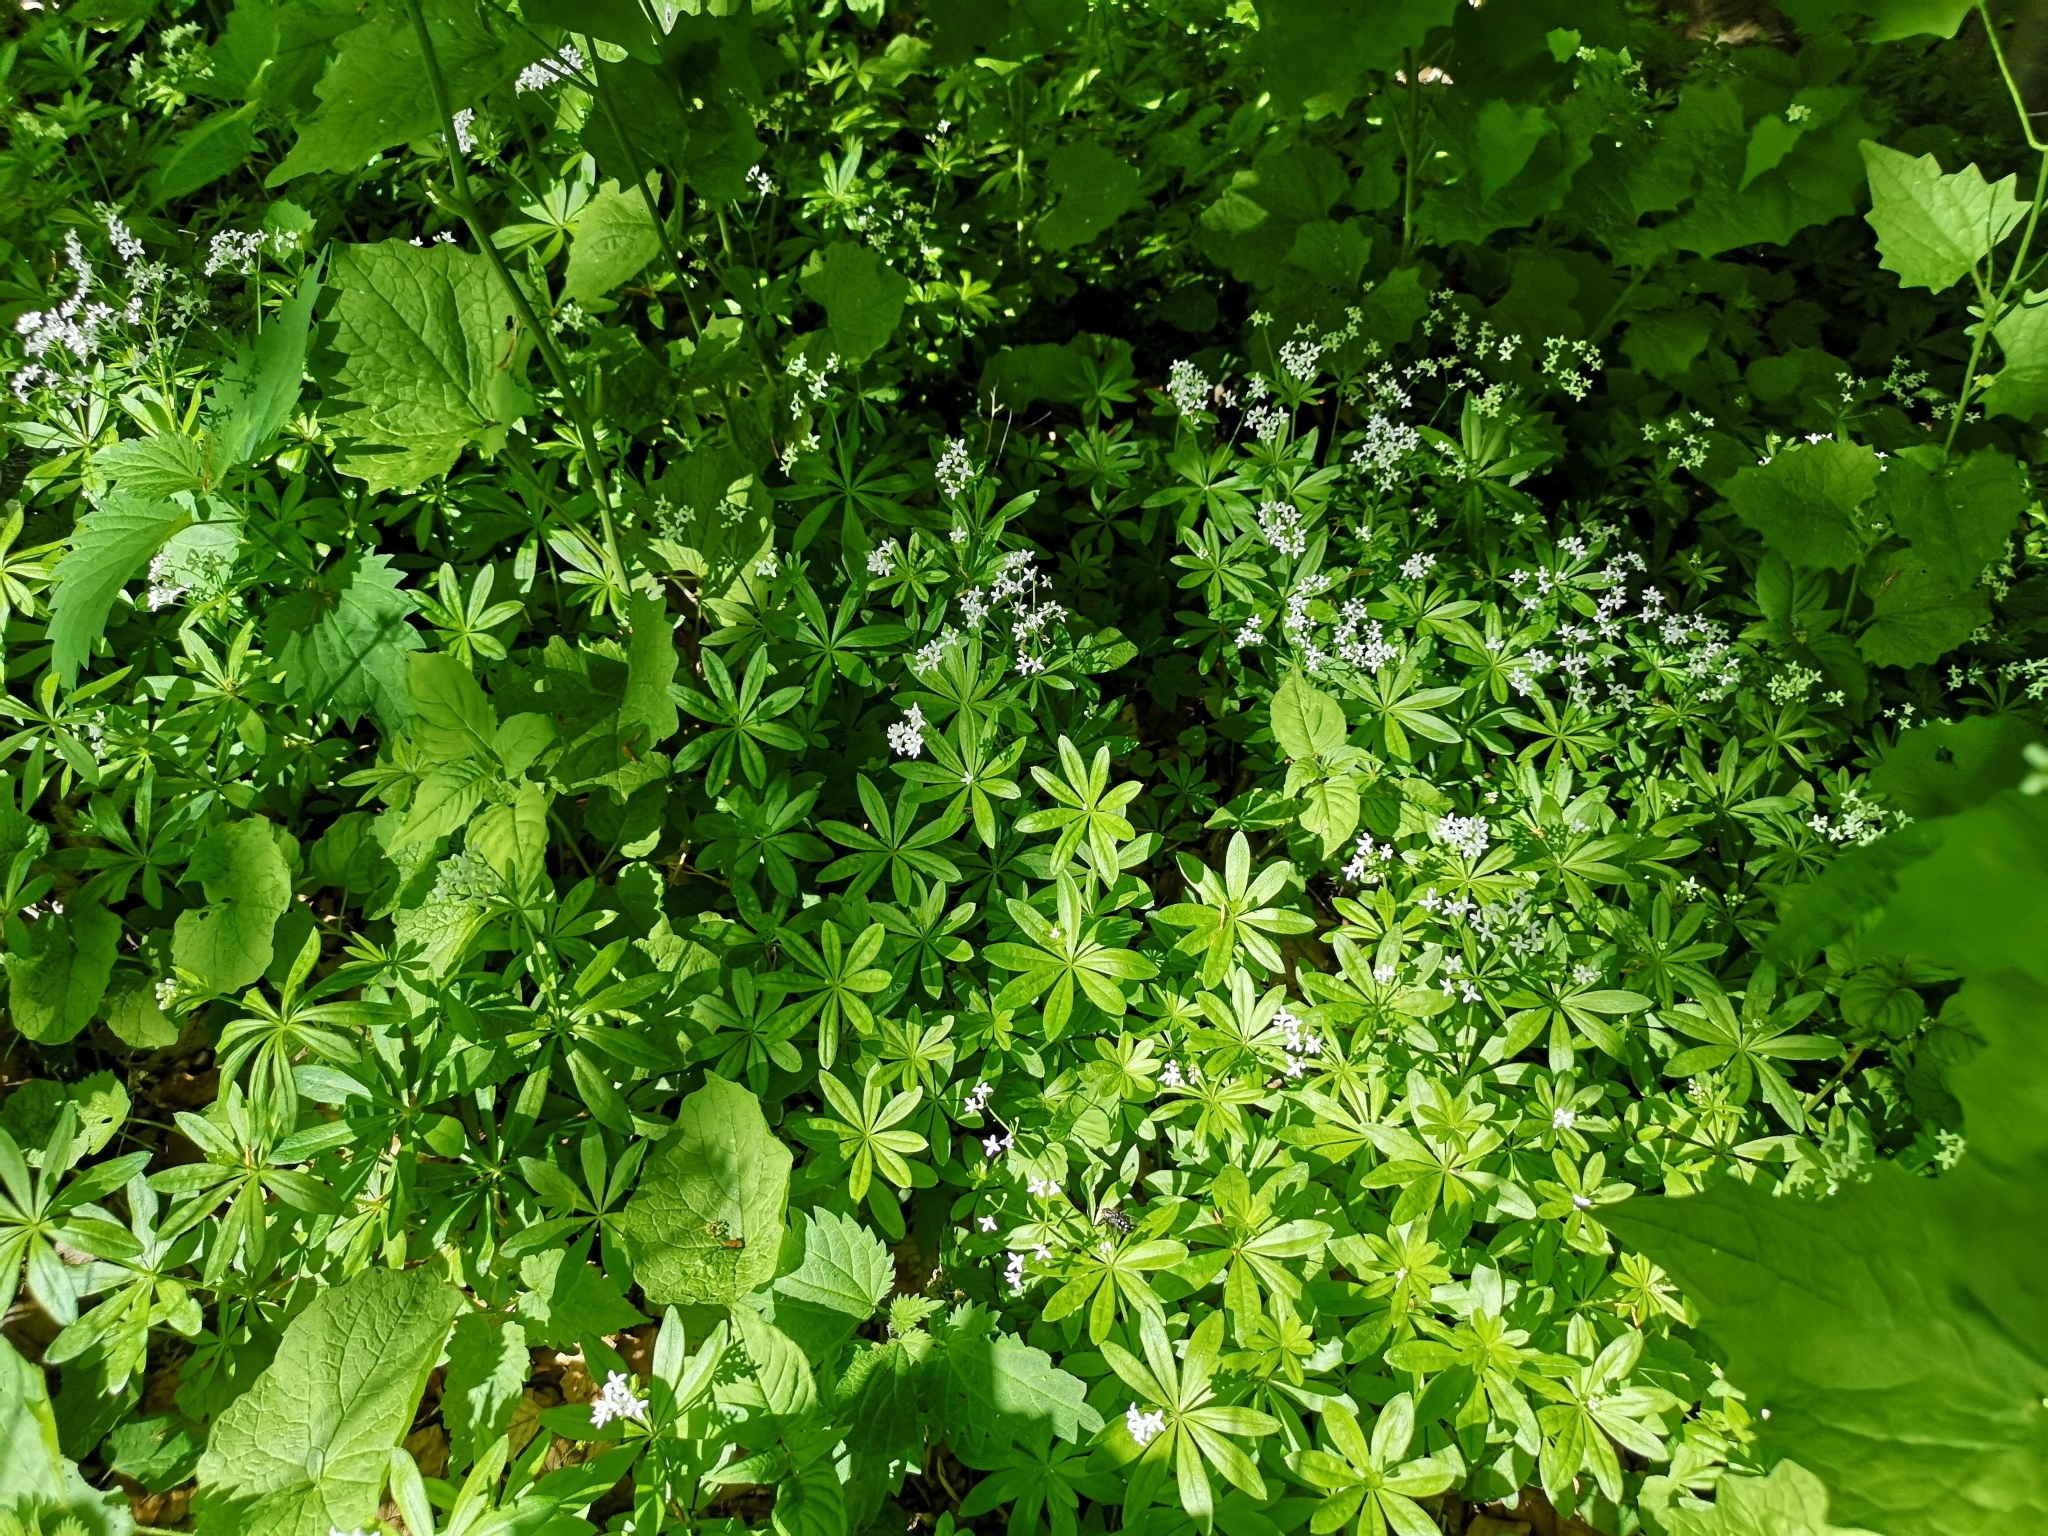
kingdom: Plantae
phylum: Tracheophyta
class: Magnoliopsida
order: Gentianales
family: Rubiaceae
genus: Galium
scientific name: Galium odoratum
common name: Sweet woodruff
